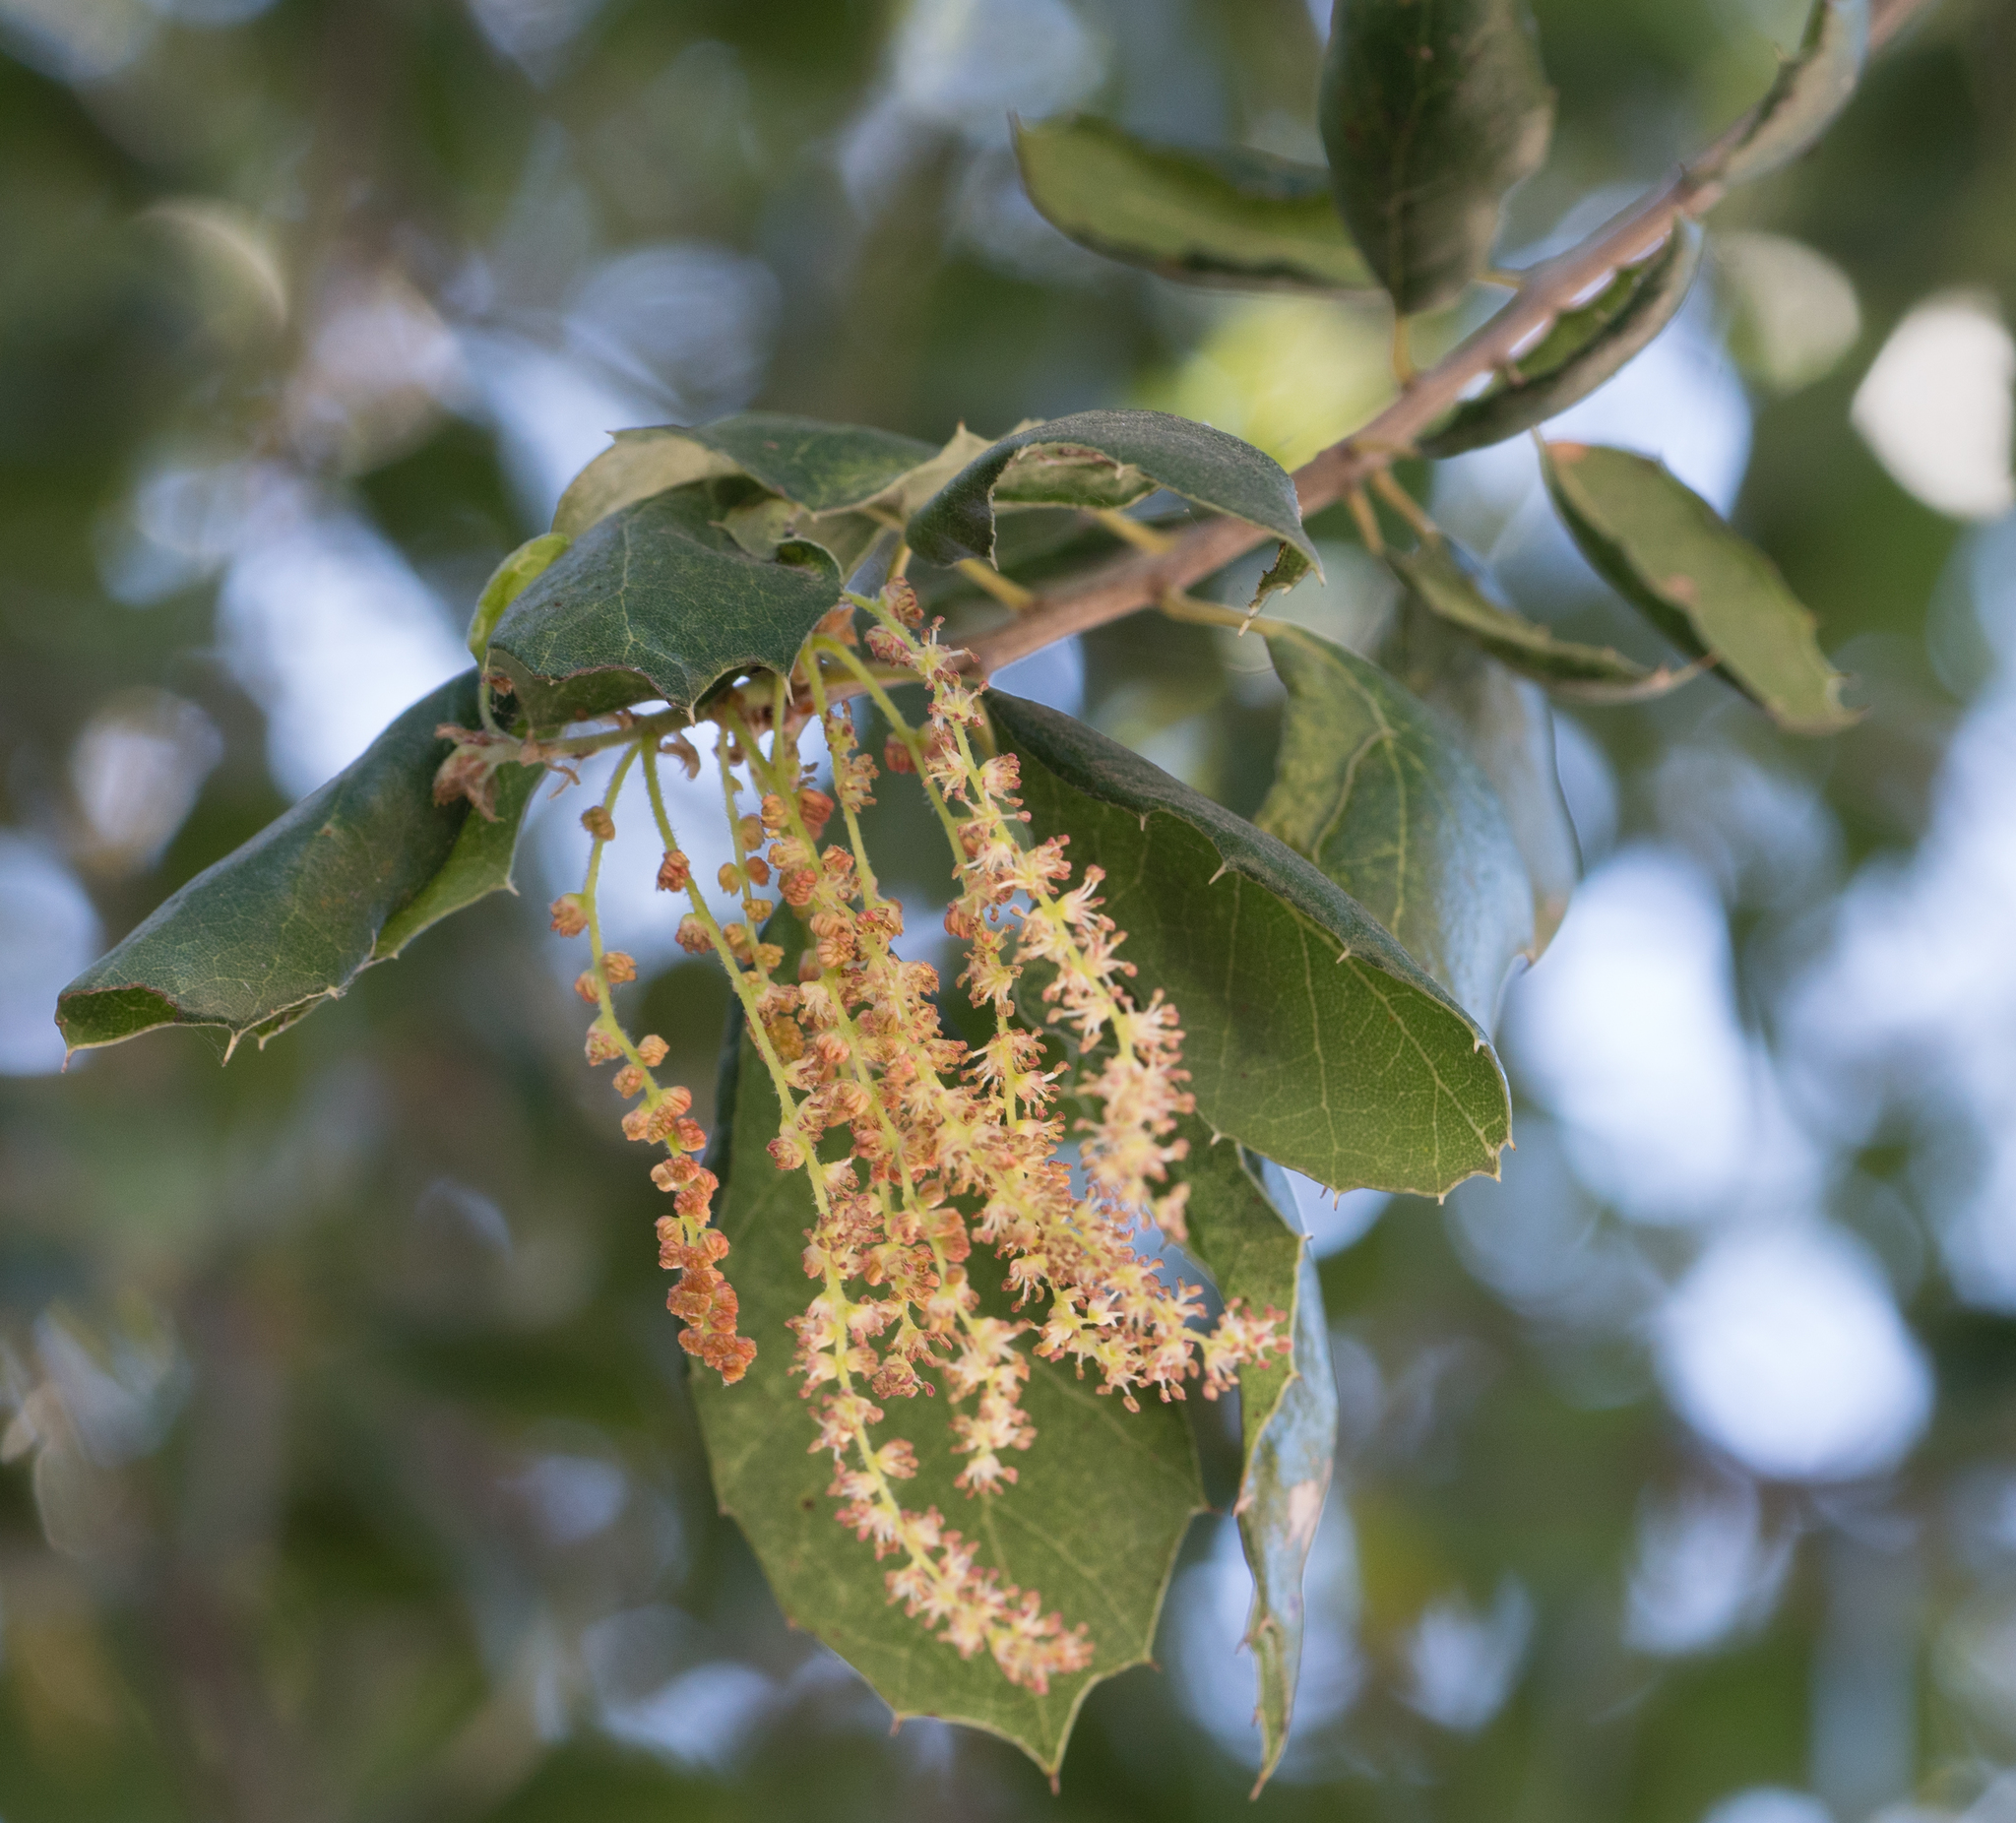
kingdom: Plantae
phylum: Tracheophyta
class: Magnoliopsida
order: Fagales
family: Fagaceae
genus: Quercus
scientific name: Quercus agrifolia
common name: California live oak
